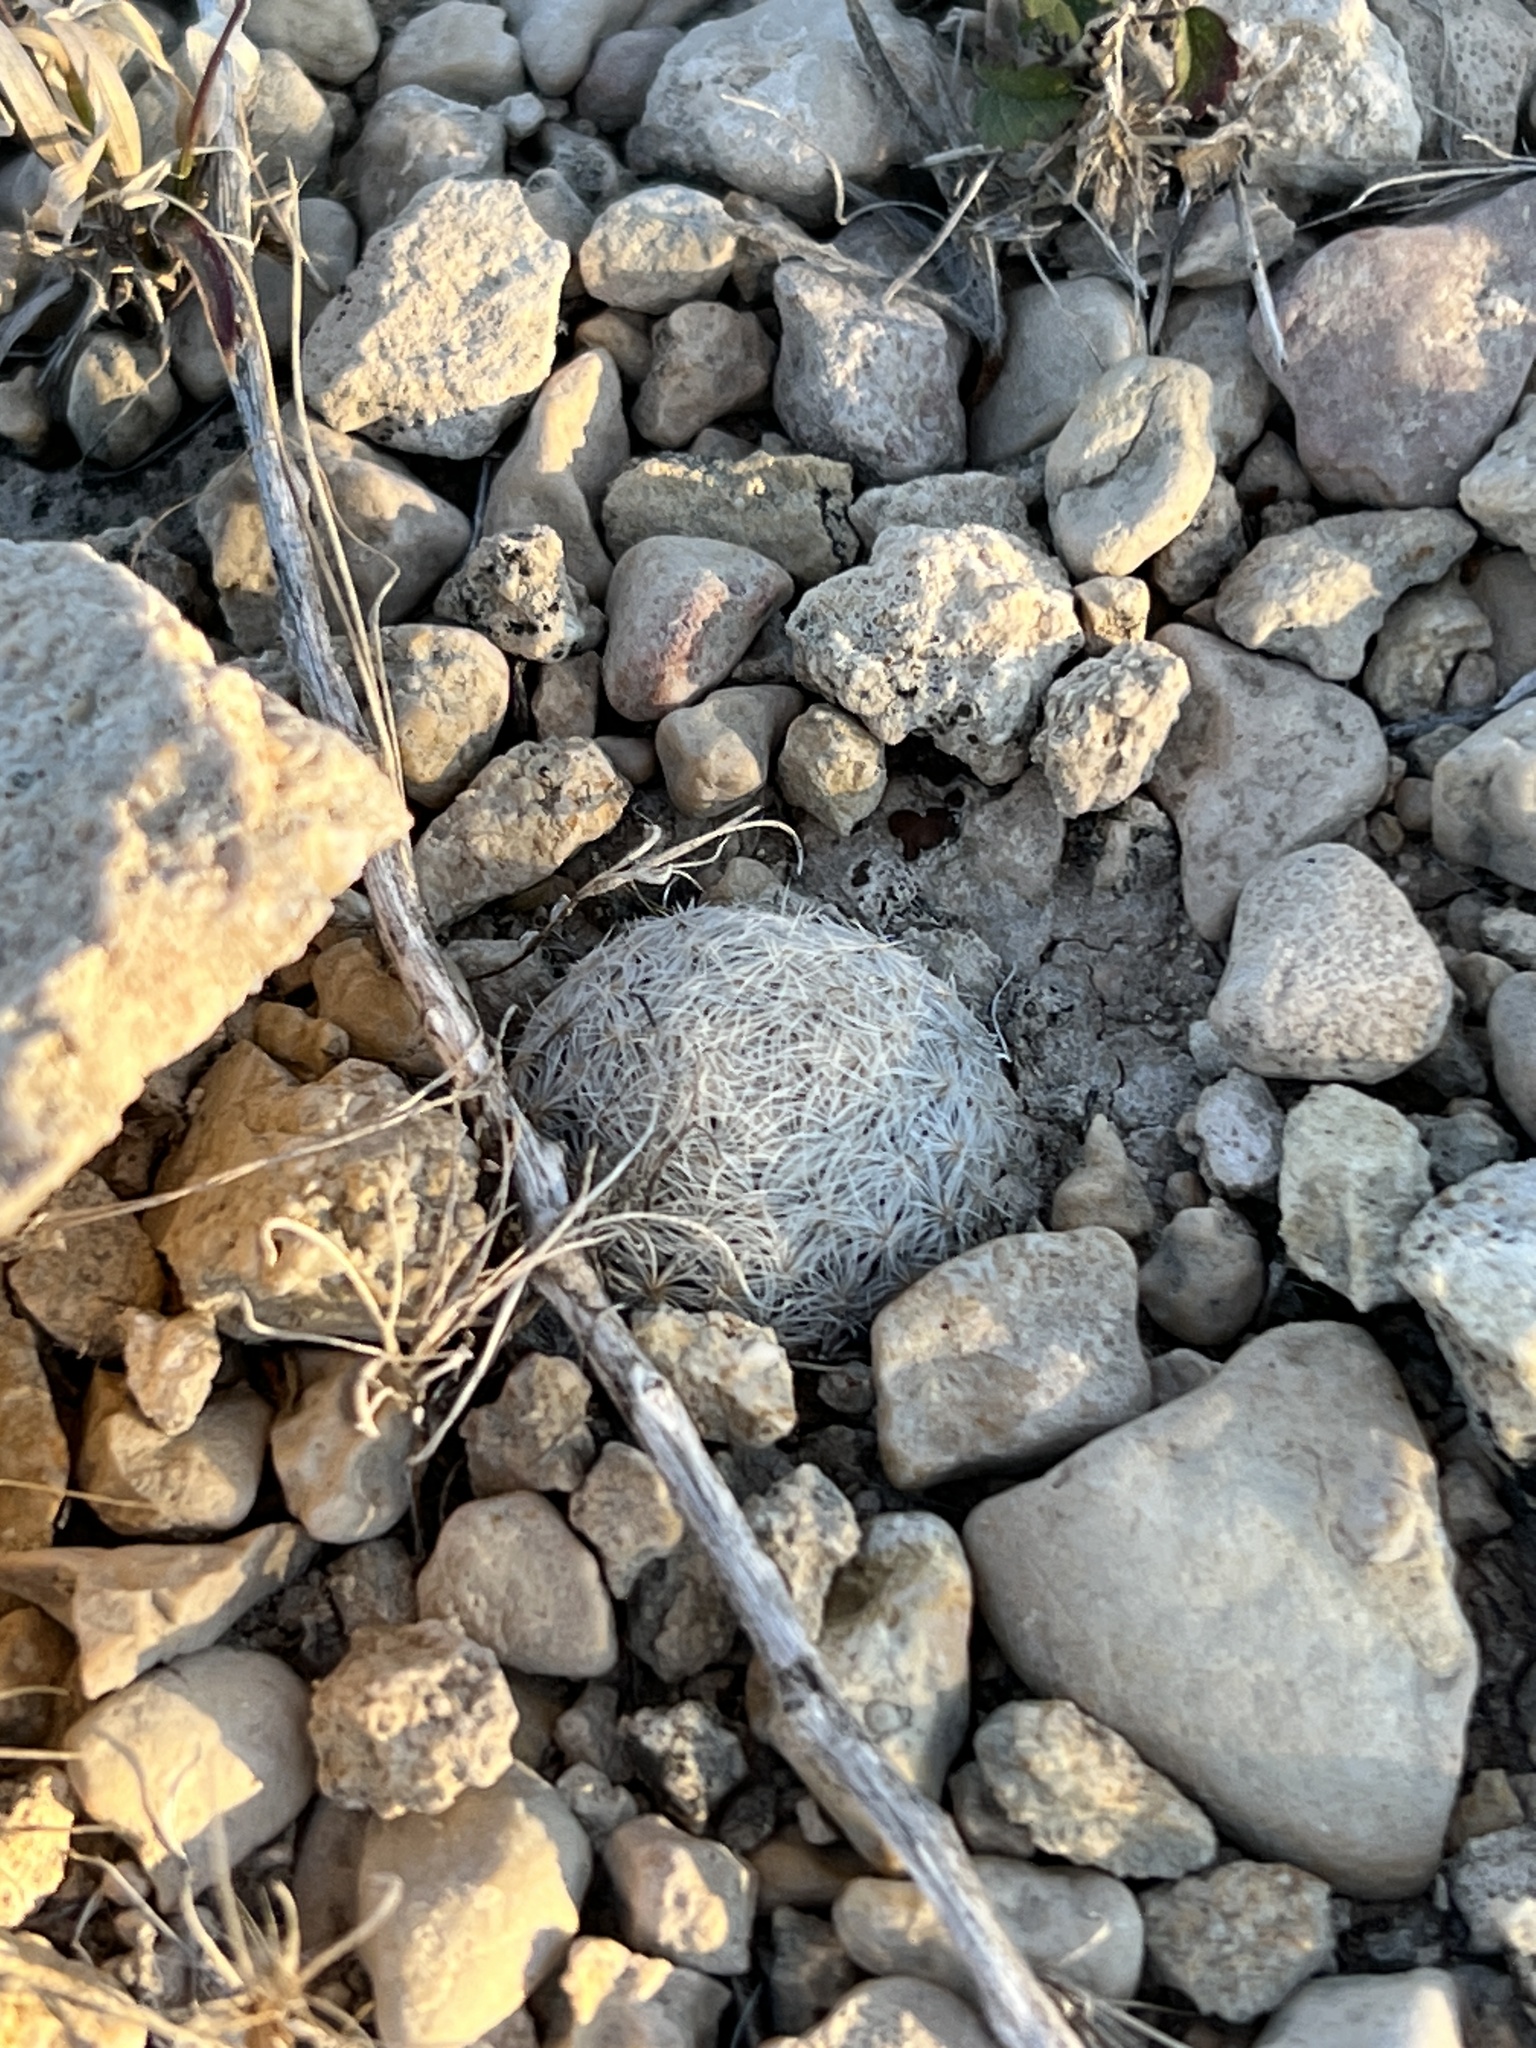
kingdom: Plantae
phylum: Tracheophyta
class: Magnoliopsida
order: Caryophyllales
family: Cactaceae
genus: Mammillaria
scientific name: Mammillaria lasiacantha
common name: Lace-spine nipple cactus
